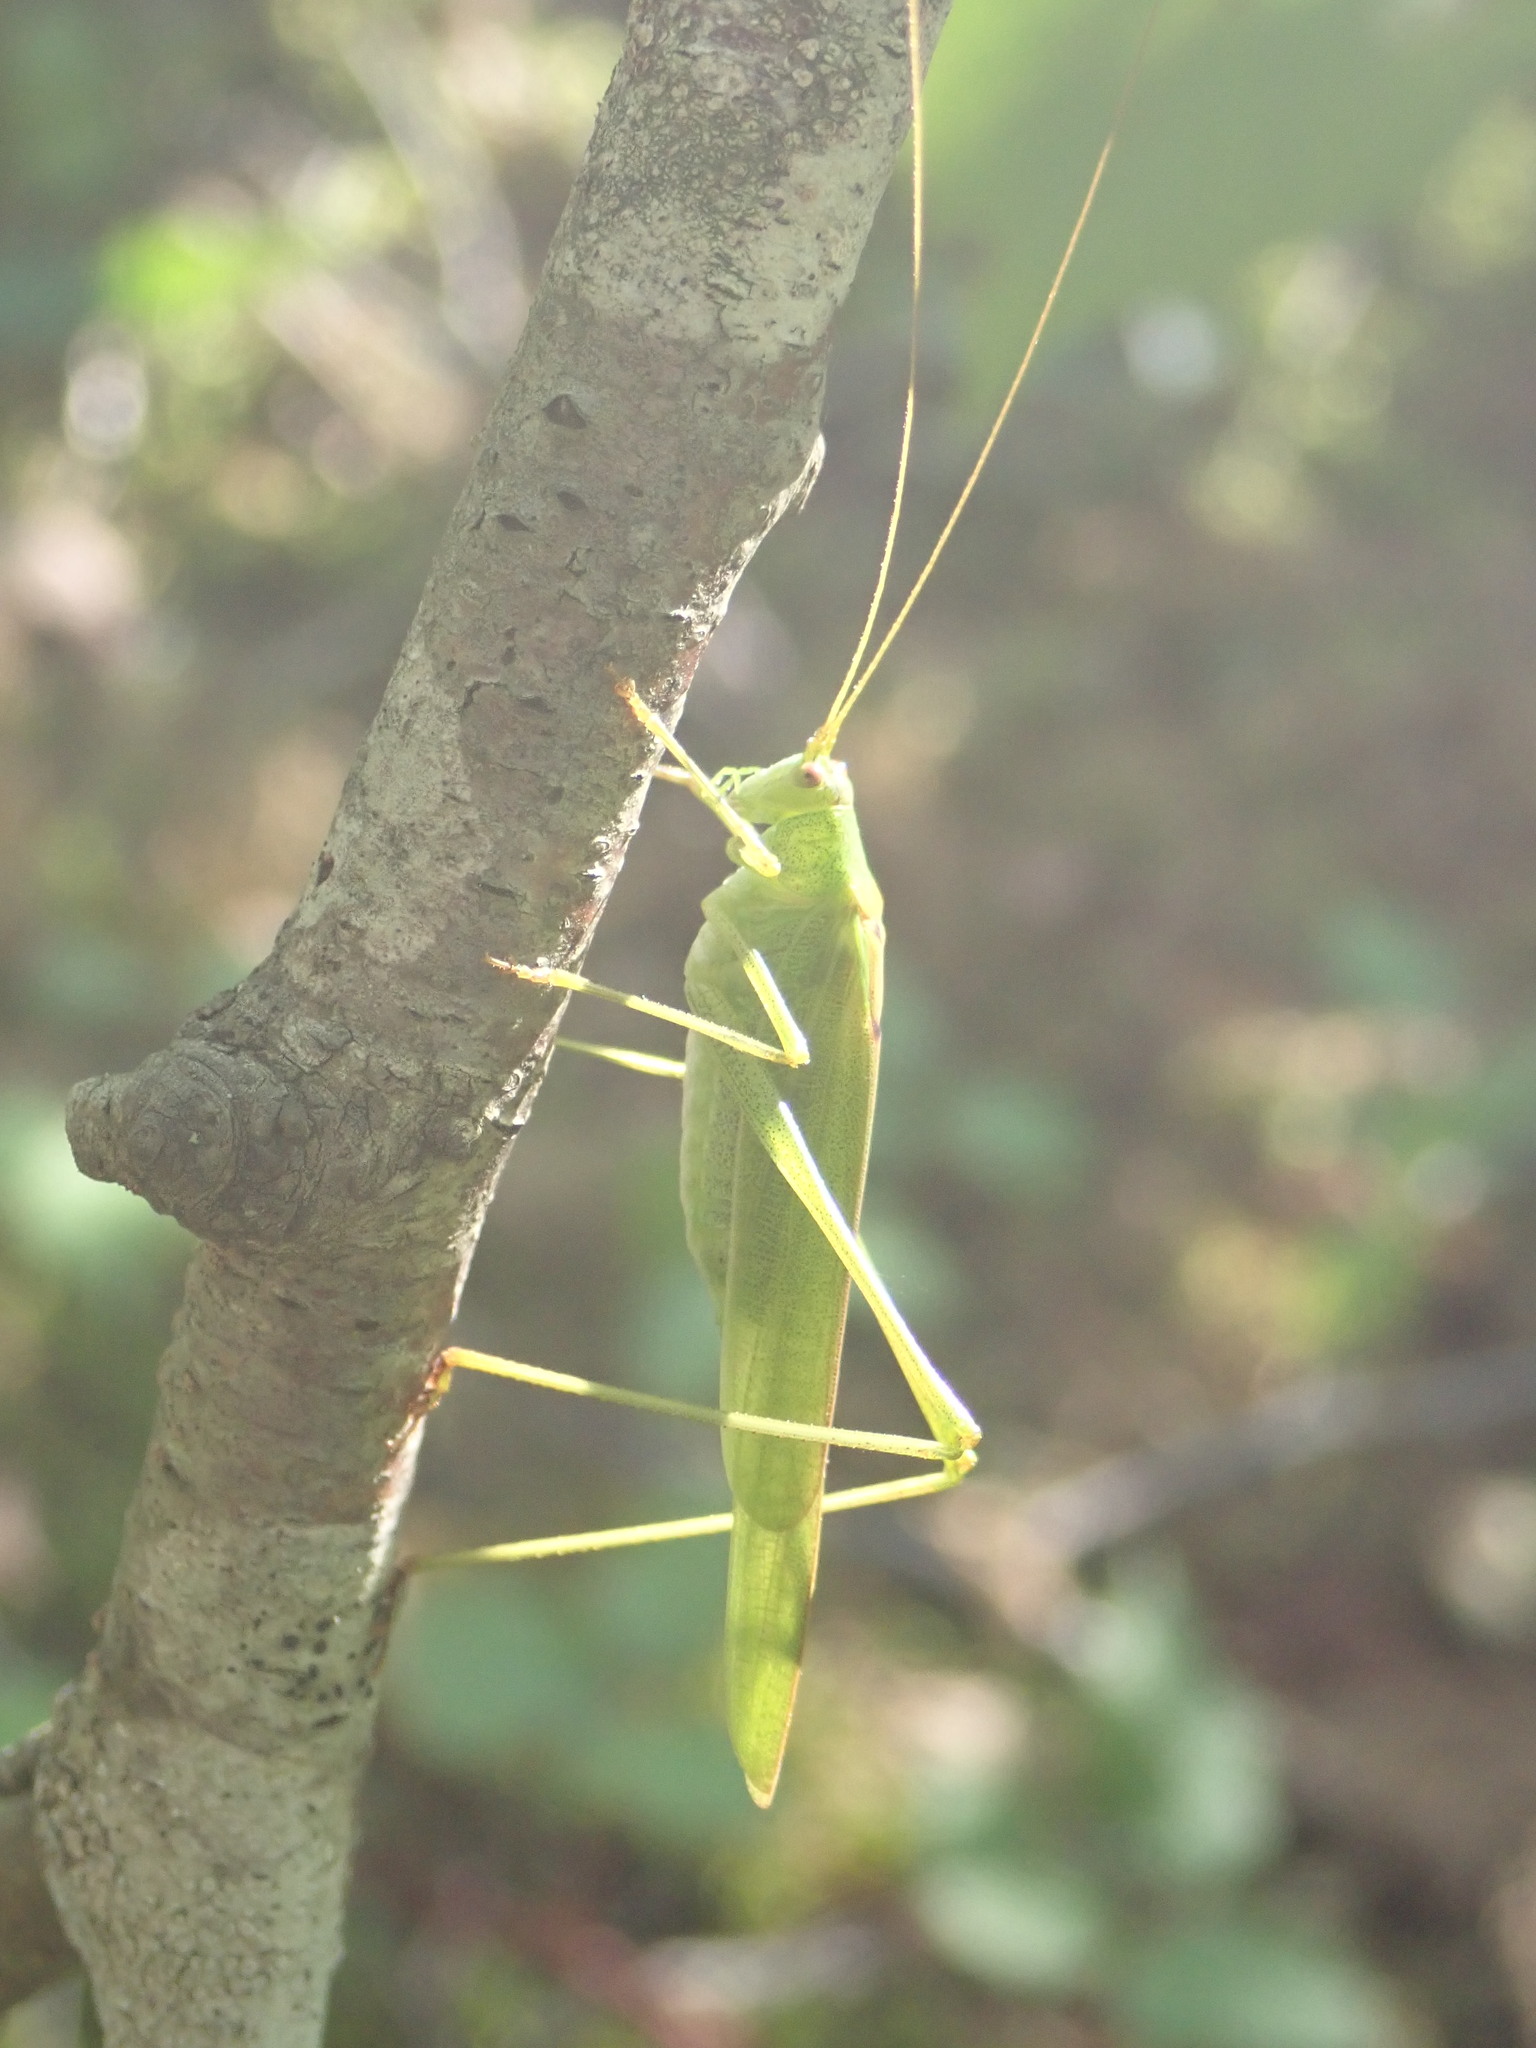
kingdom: Animalia
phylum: Arthropoda
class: Insecta
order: Orthoptera
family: Tettigoniidae
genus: Phaneroptera
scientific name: Phaneroptera falcata
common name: Sickle-bearing bush-cricket
